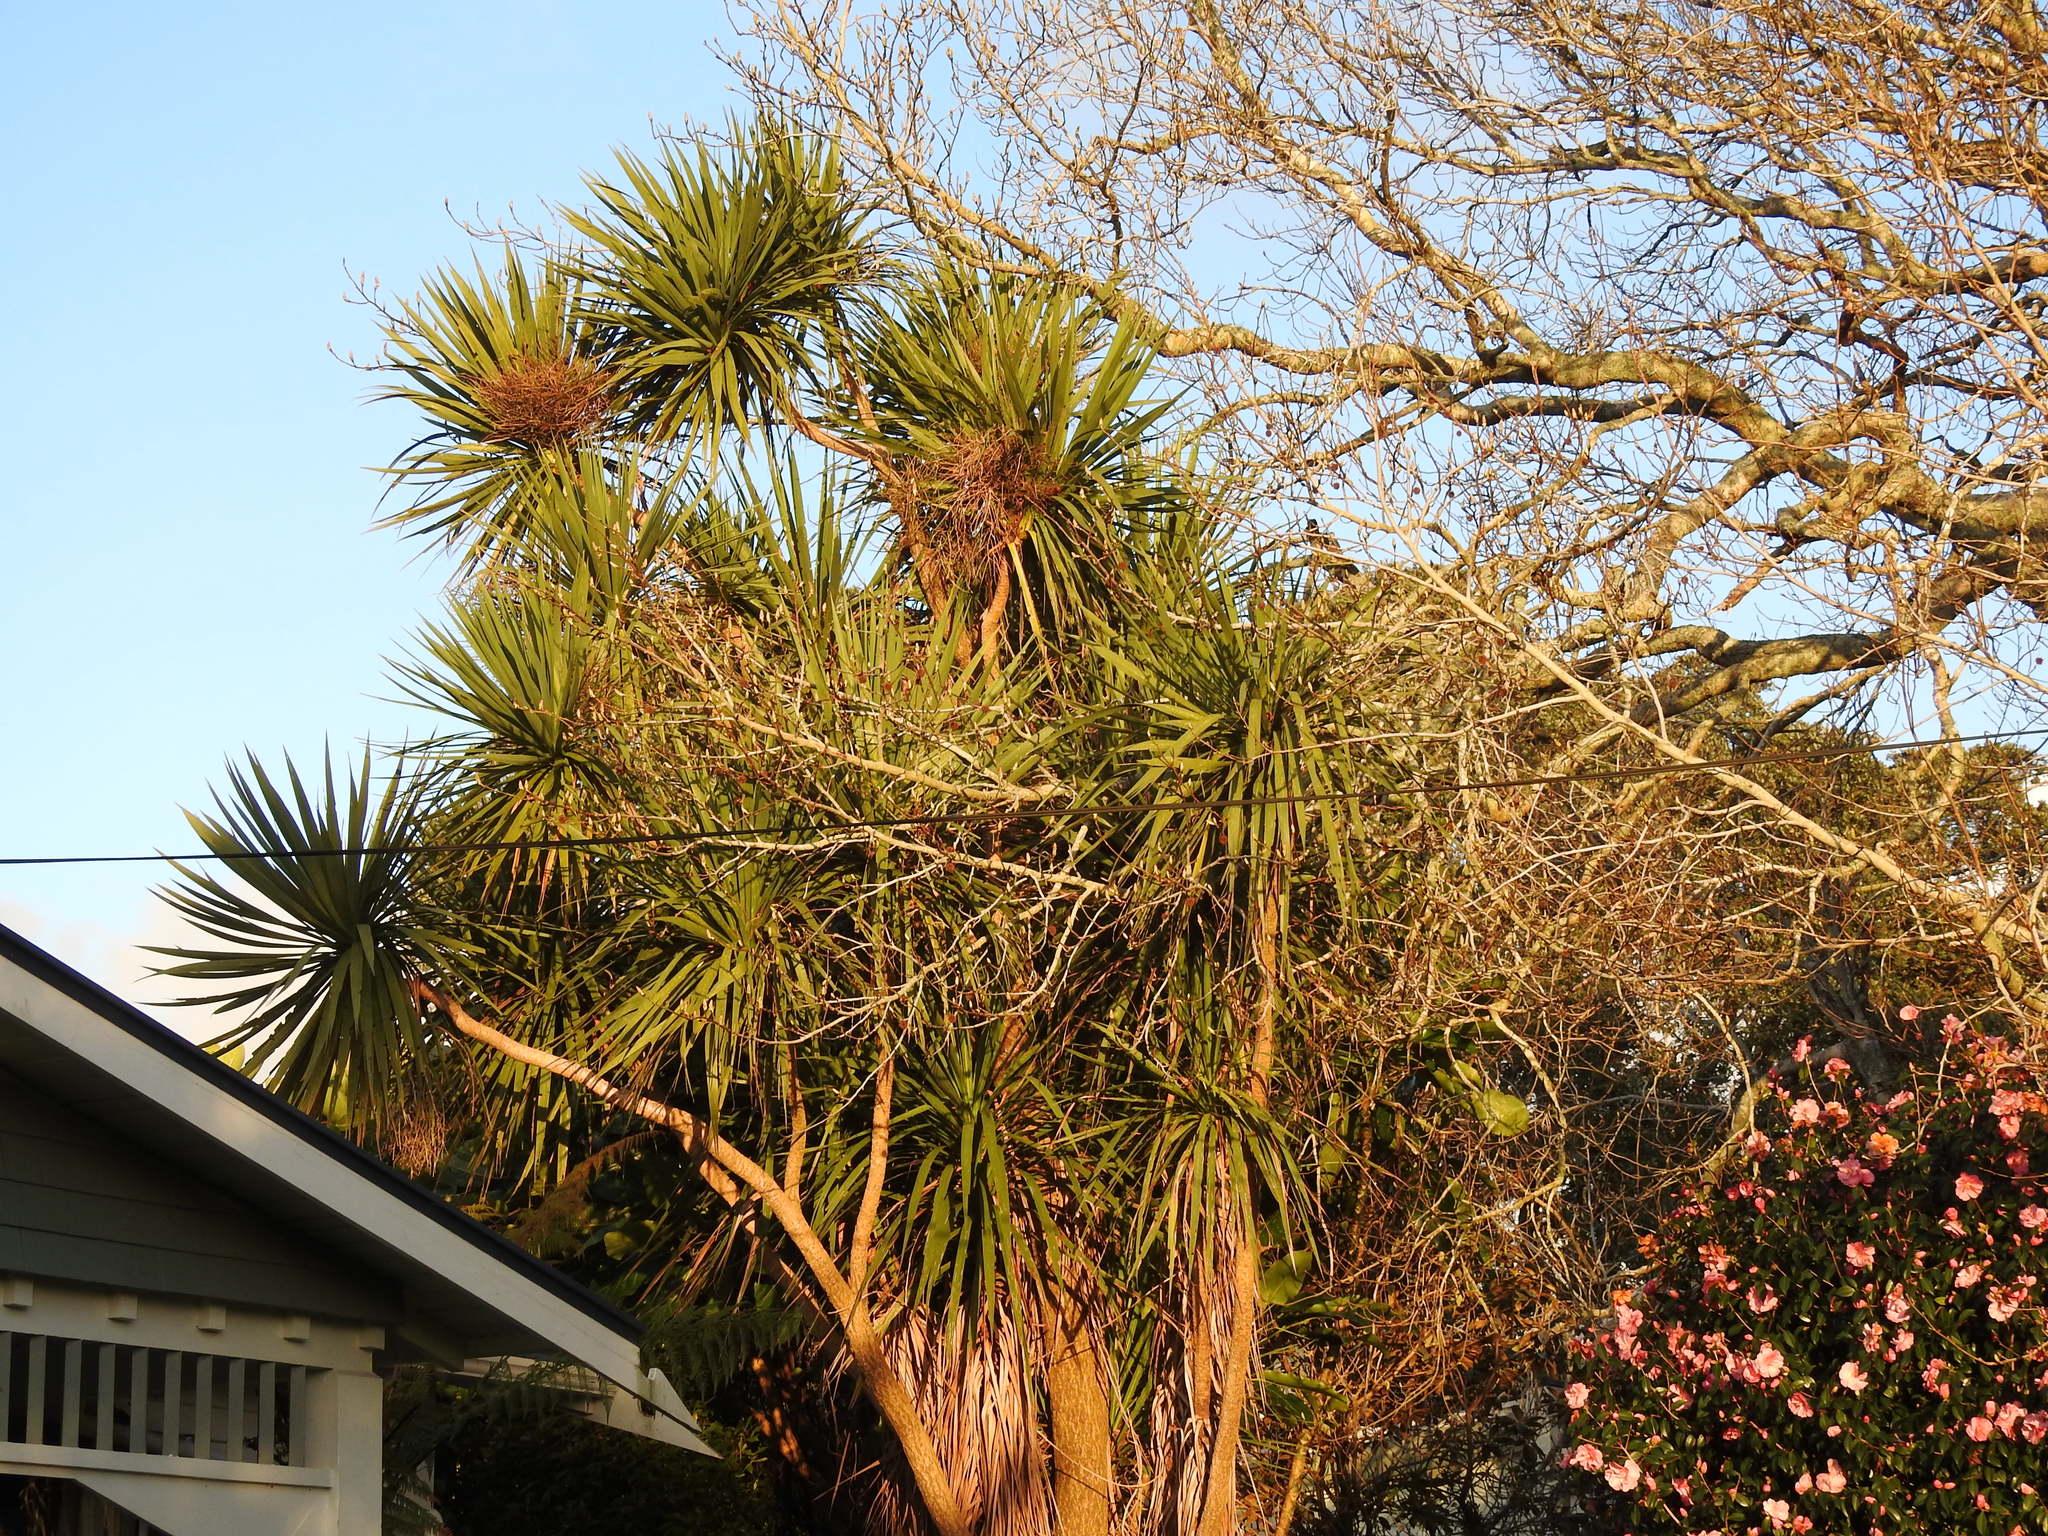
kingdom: Plantae
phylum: Tracheophyta
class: Liliopsida
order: Asparagales
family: Asparagaceae
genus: Cordyline
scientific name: Cordyline australis
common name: Cabbage-palm
